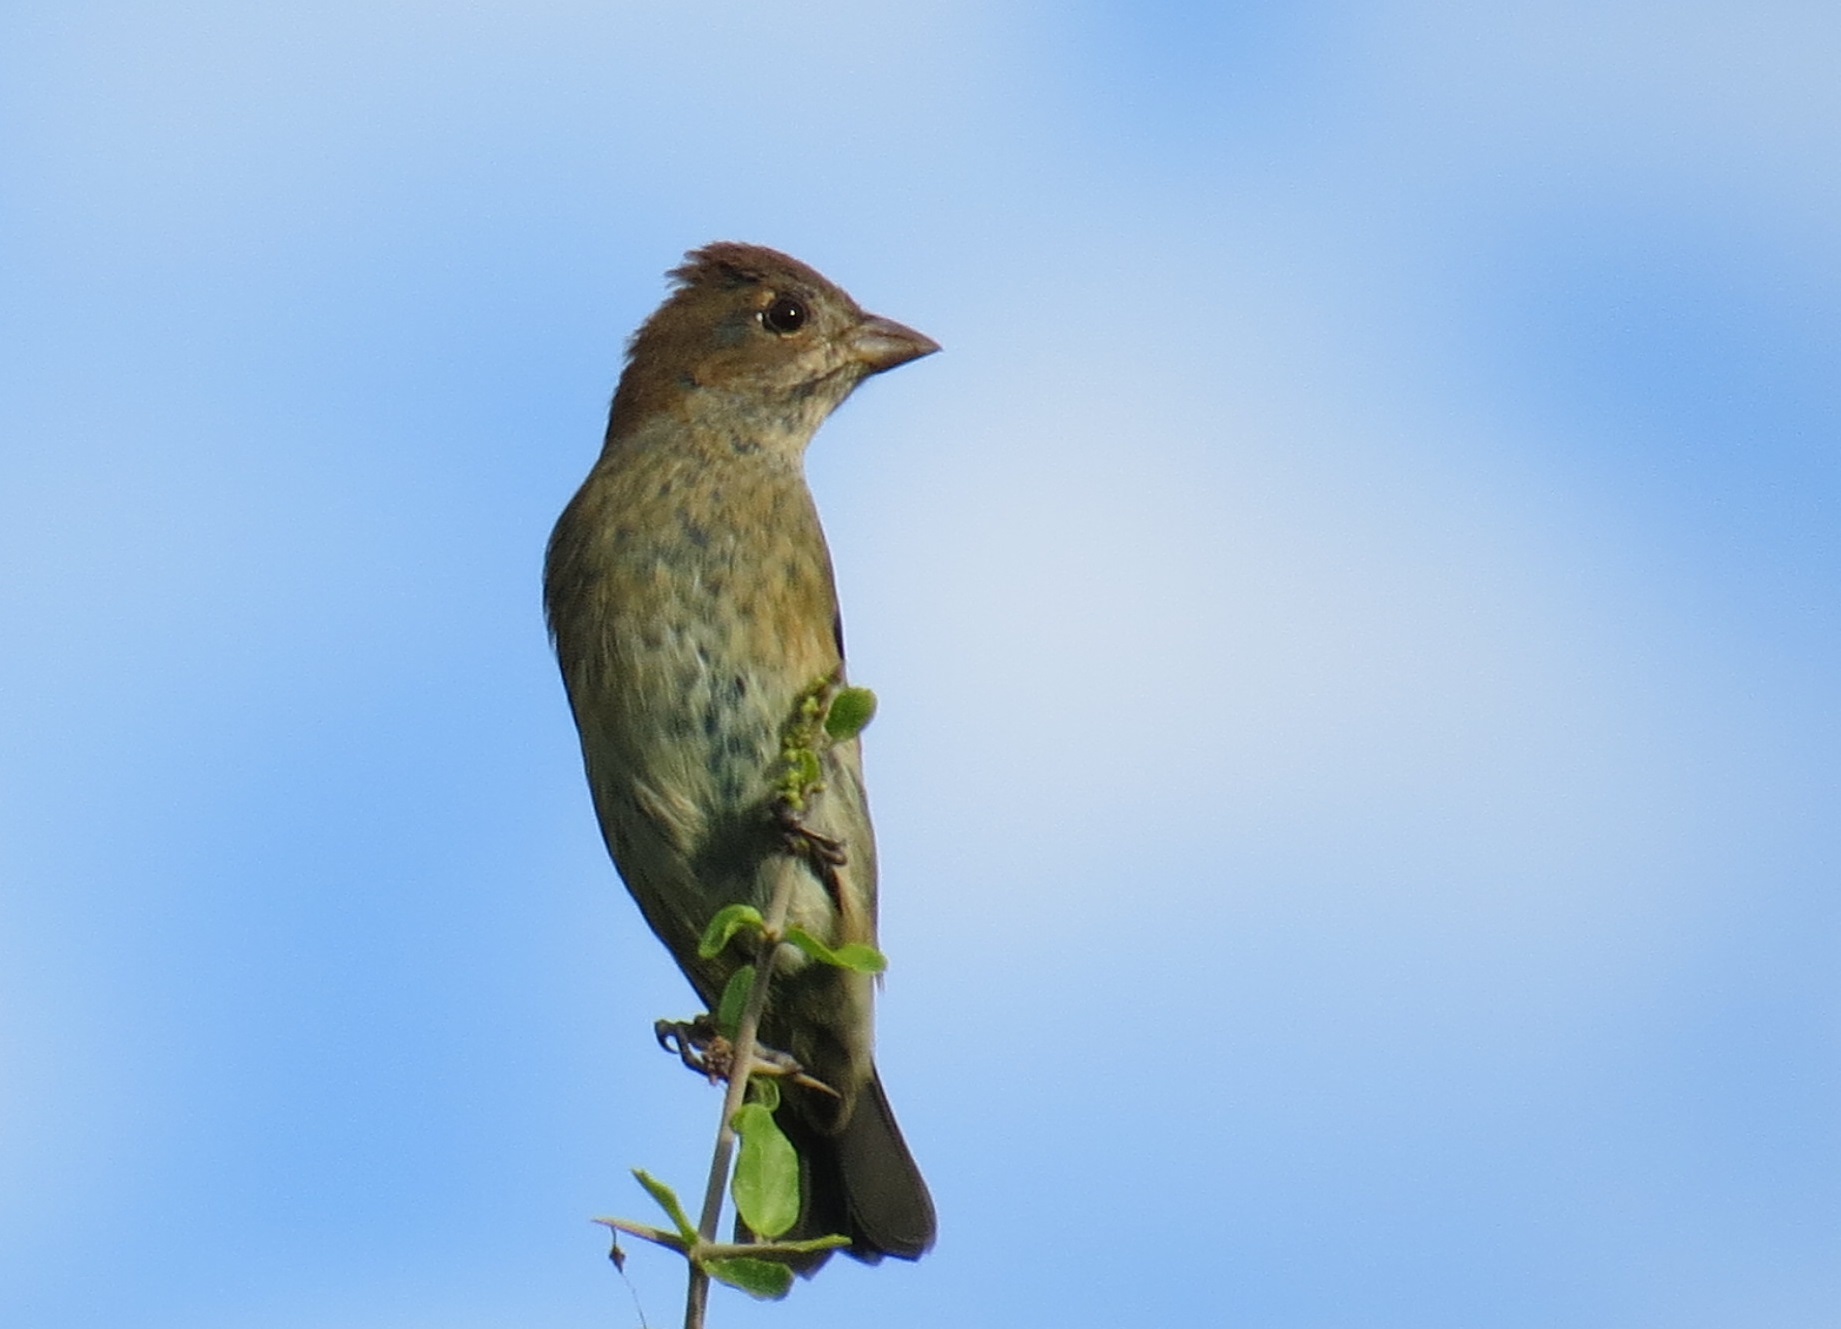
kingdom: Animalia
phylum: Chordata
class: Aves
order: Passeriformes
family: Cardinalidae
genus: Passerina
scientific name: Passerina cyanea
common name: Indigo bunting
